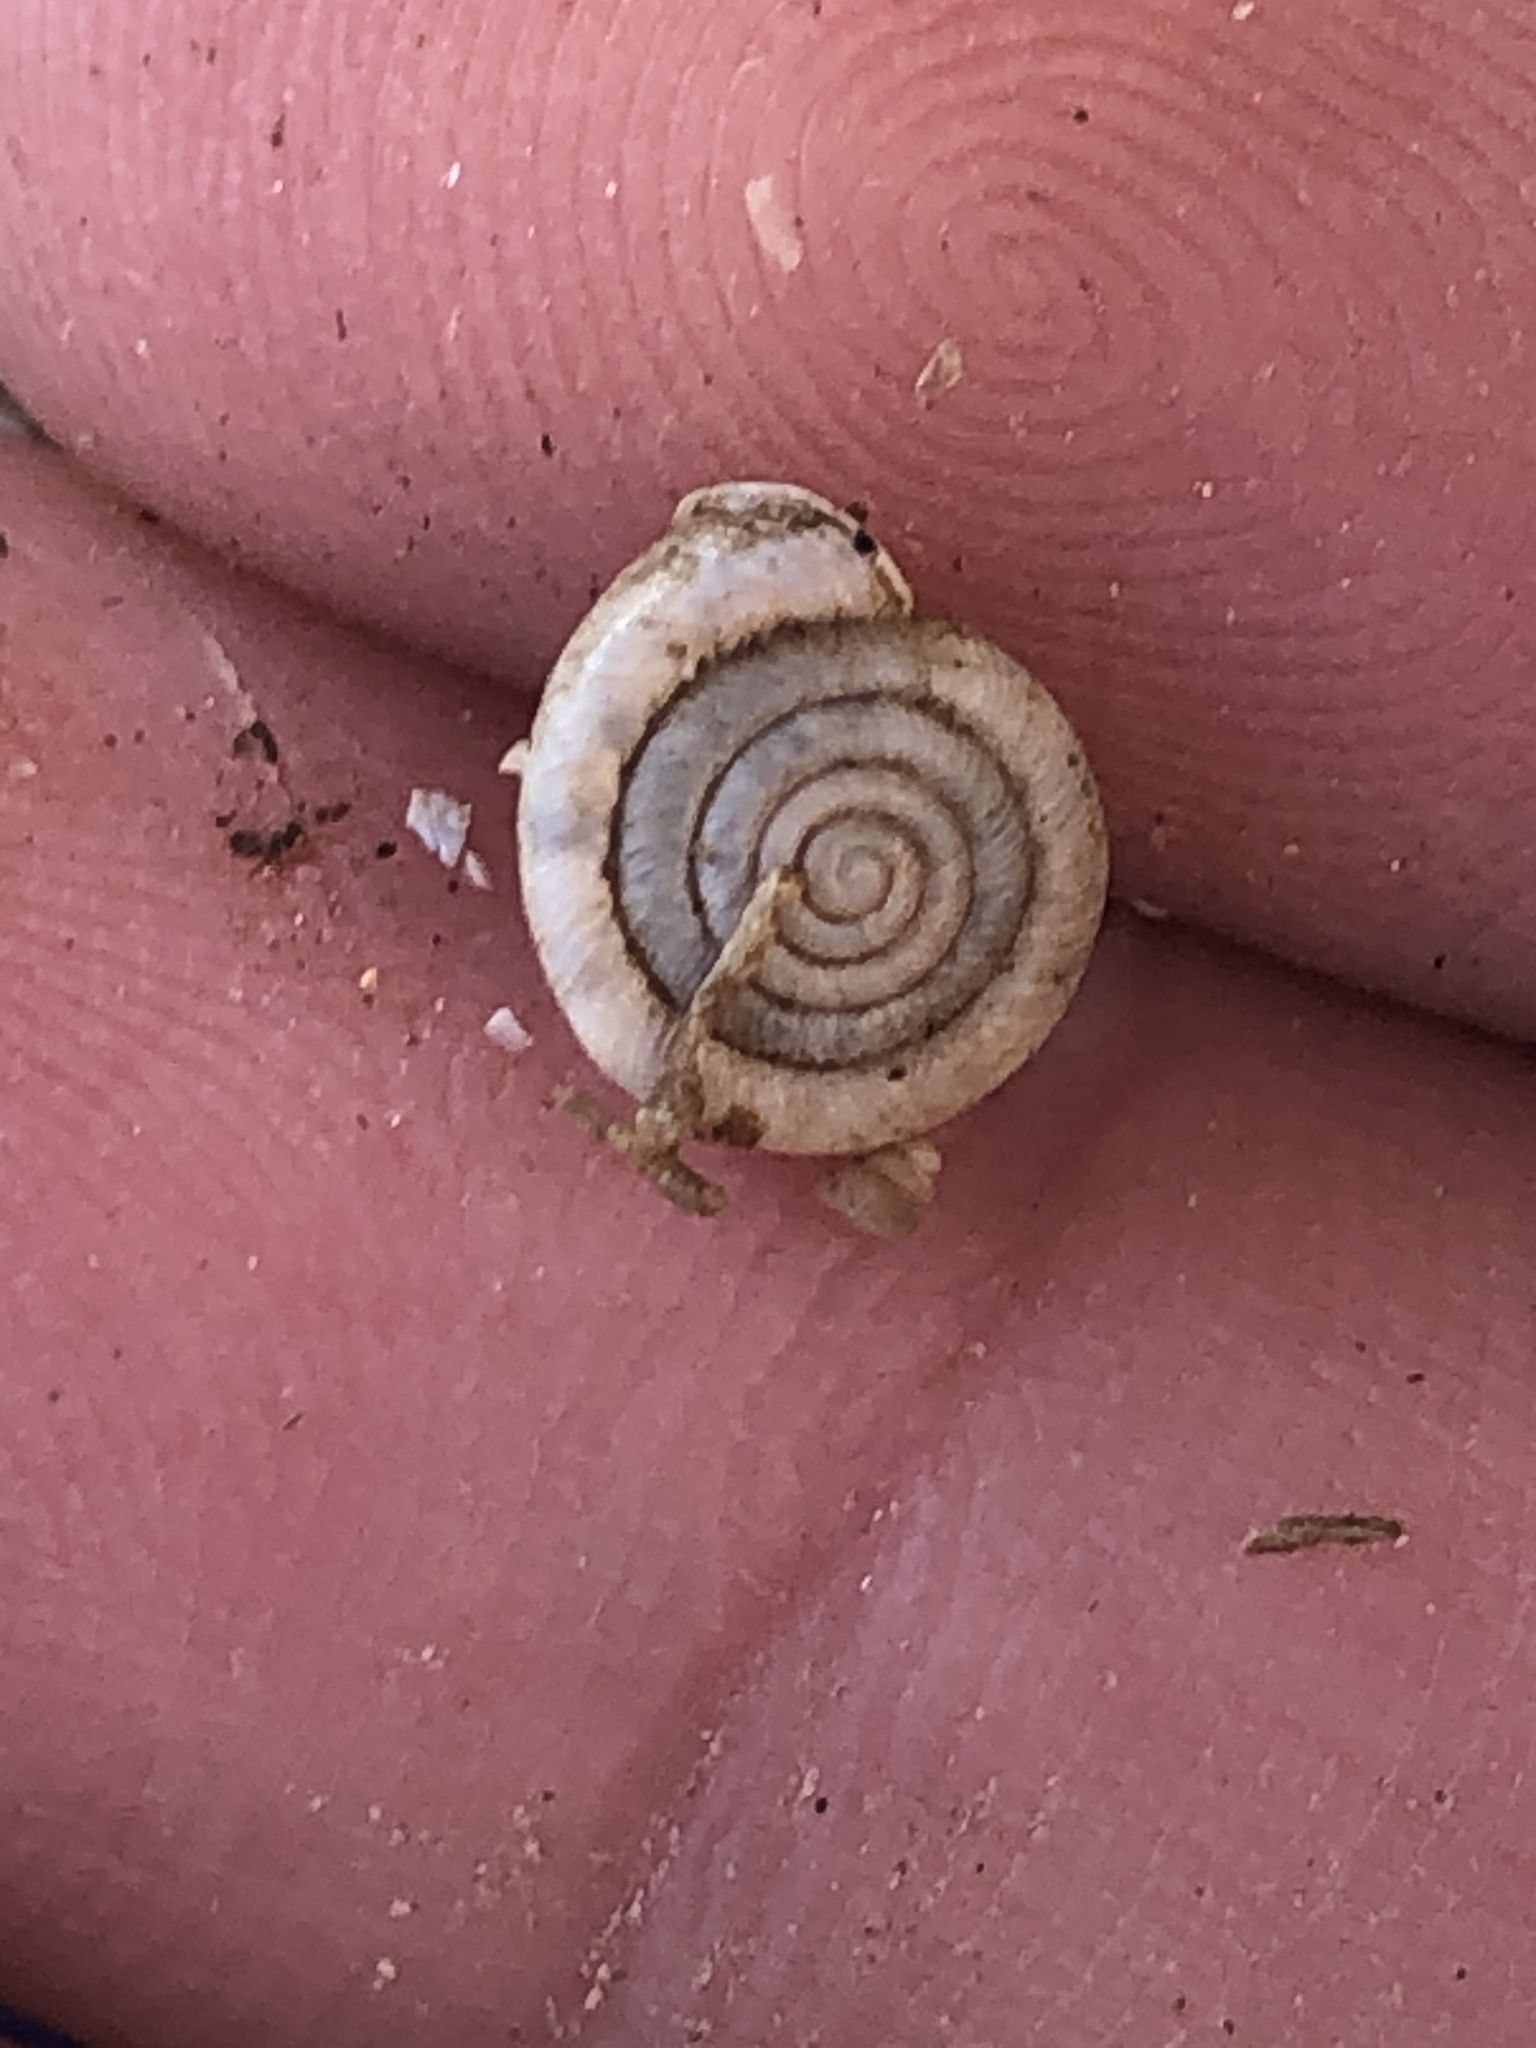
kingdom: Animalia
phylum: Mollusca
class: Gastropoda
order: Stylommatophora
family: Polygyridae
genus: Polygyra
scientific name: Polygyra cereolus
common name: Southern flatcone snail
